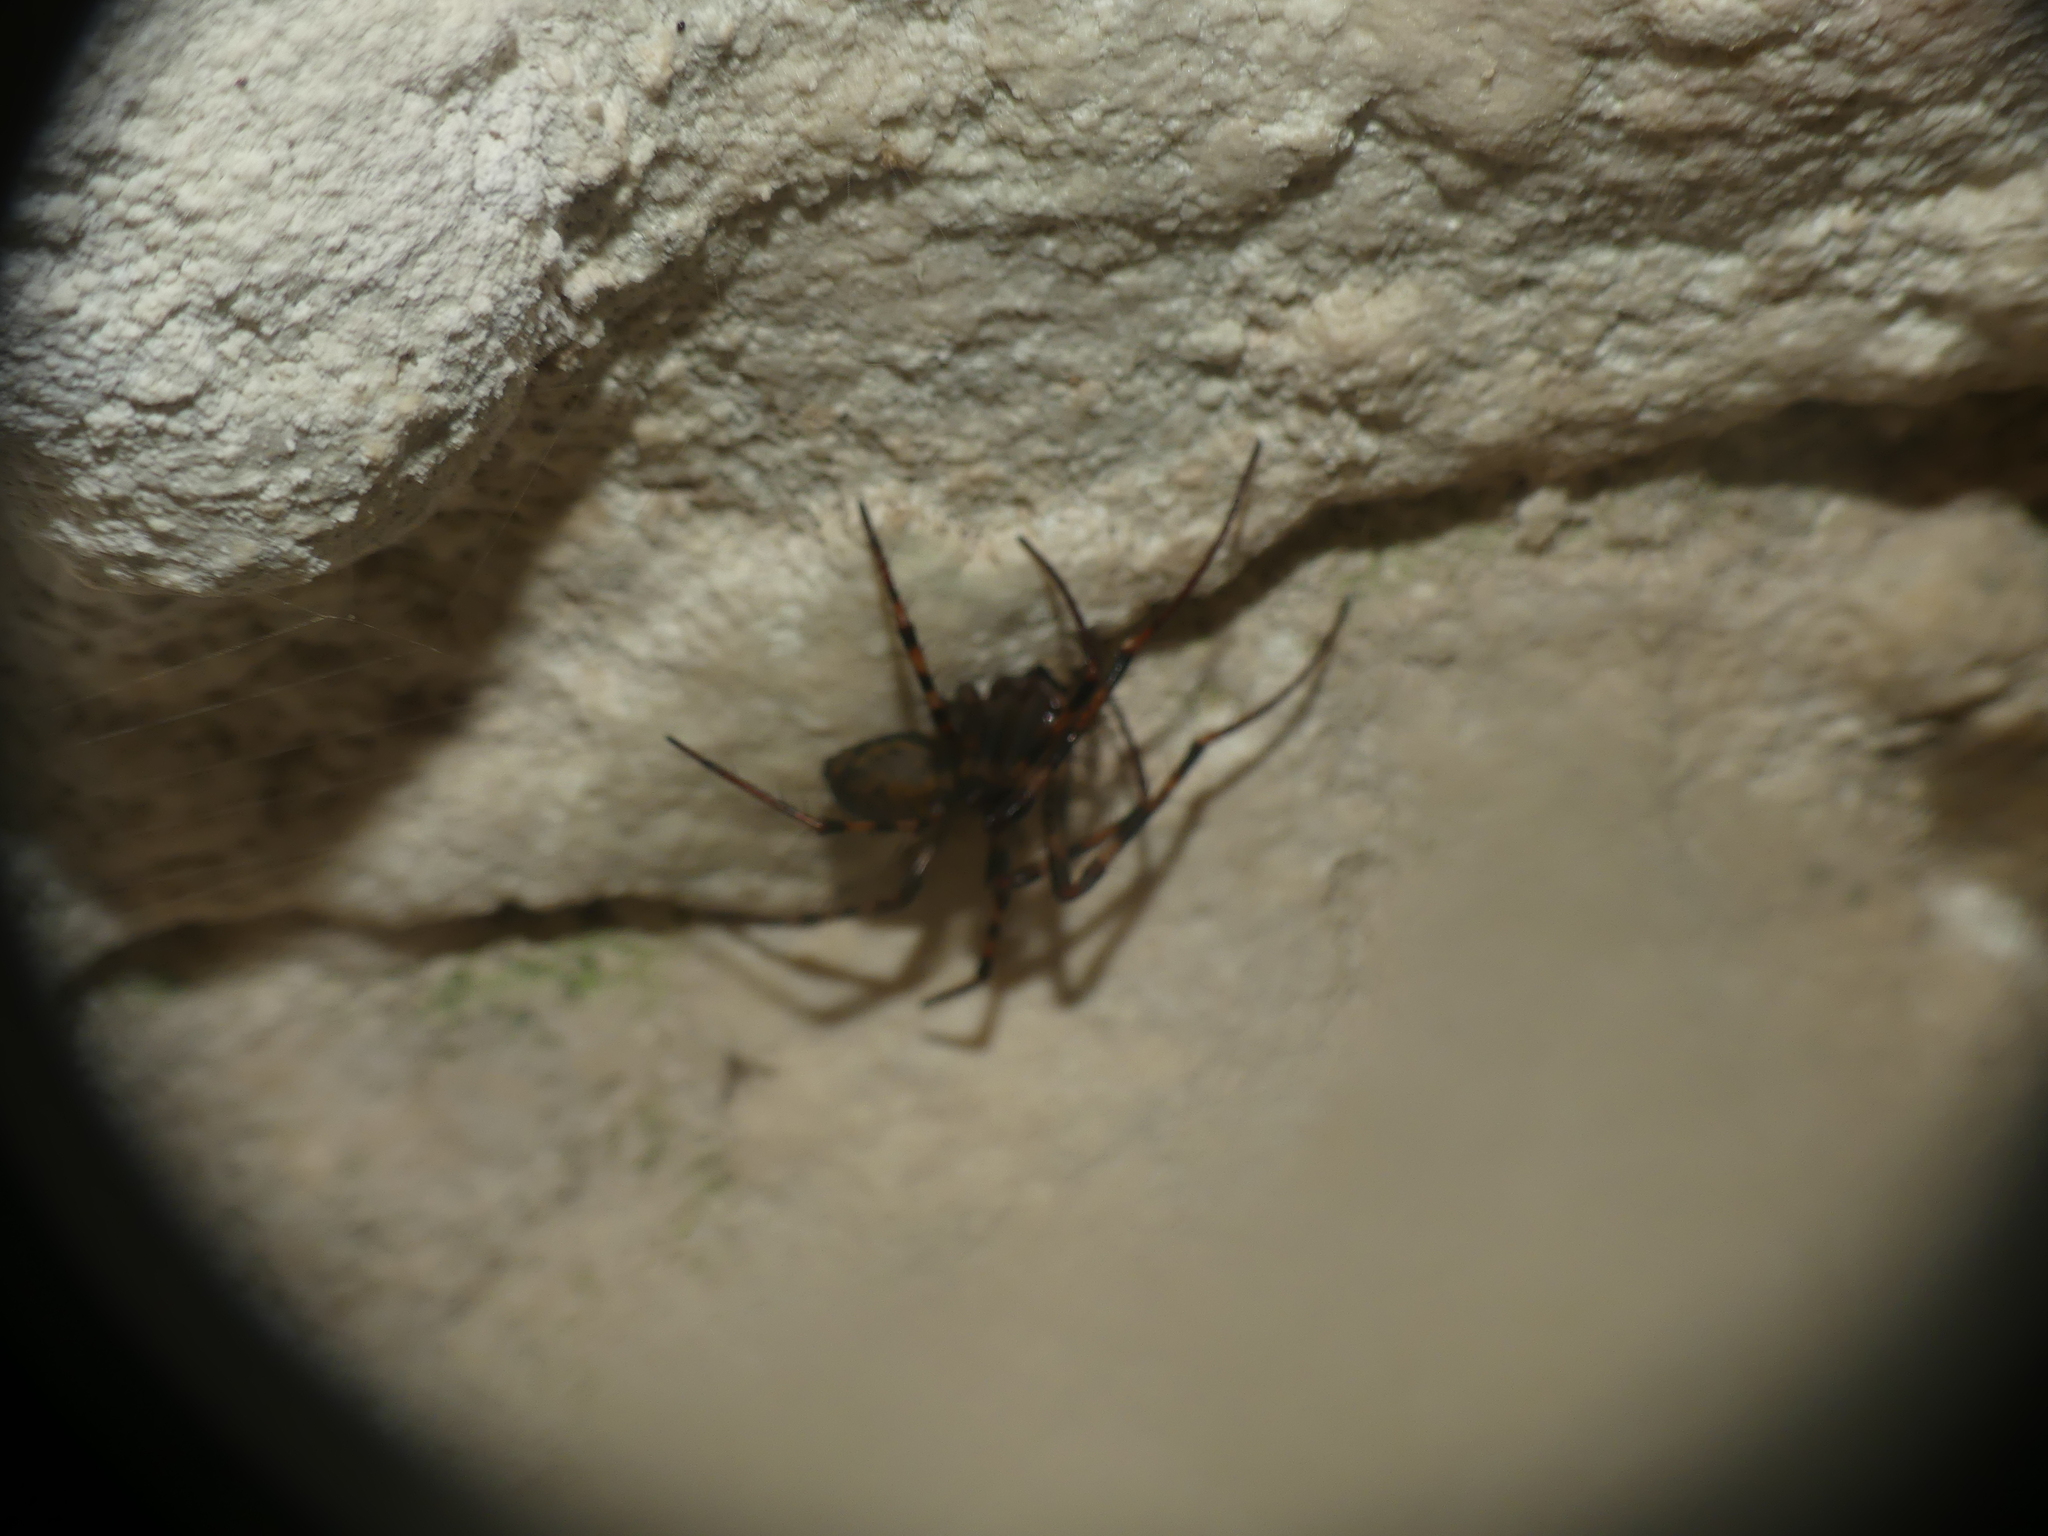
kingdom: Animalia
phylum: Arthropoda
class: Arachnida
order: Araneae
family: Tetragnathidae
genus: Meta
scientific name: Meta menardi
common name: Cave spider
